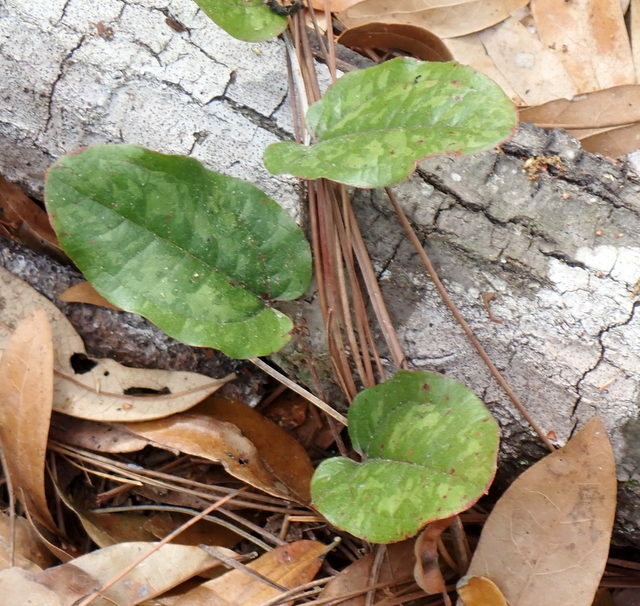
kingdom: Plantae
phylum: Tracheophyta
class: Liliopsida
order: Liliales
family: Smilacaceae
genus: Smilax
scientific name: Smilax pumila
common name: Sarsaparilla-vine
